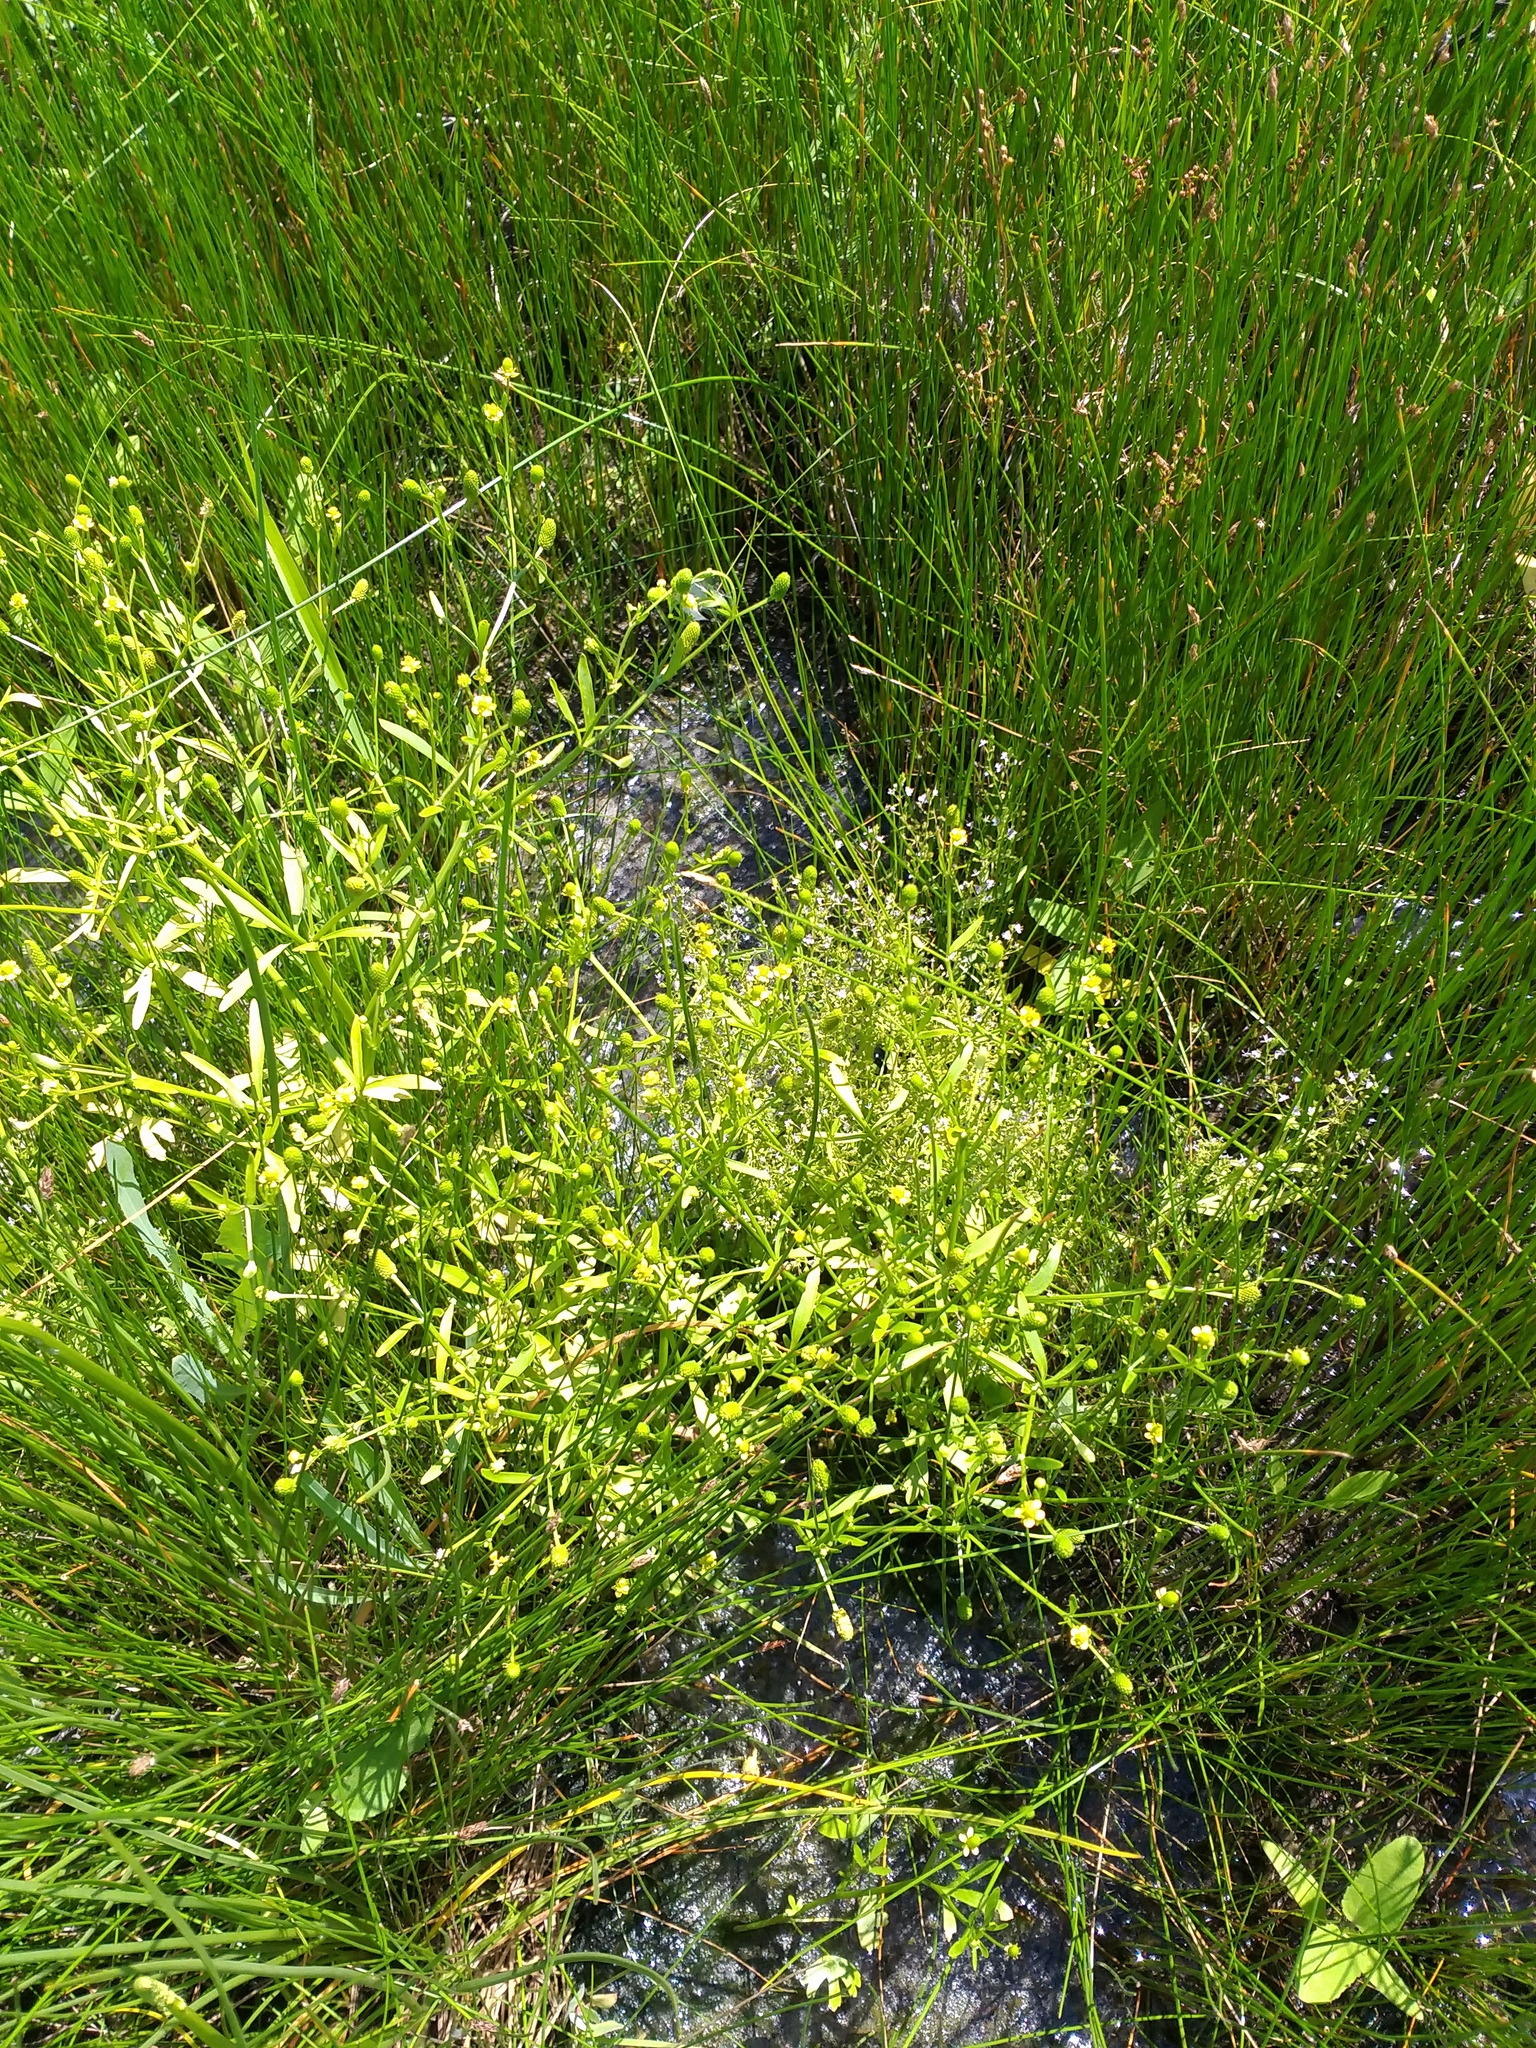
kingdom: Plantae
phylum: Tracheophyta
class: Magnoliopsida
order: Lamiales
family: Plantaginaceae
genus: Veronica
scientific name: Veronica anagalloides
